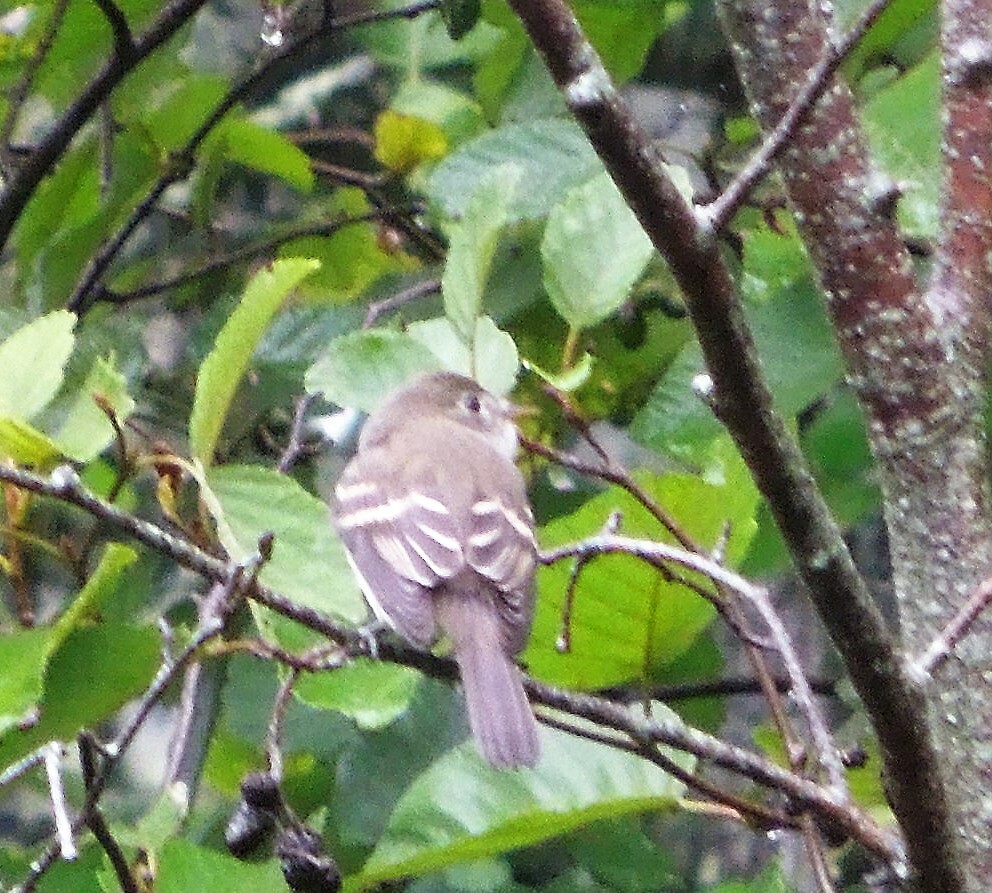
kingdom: Animalia
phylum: Chordata
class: Aves
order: Passeriformes
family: Tyrannidae
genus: Empidonax
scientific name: Empidonax
